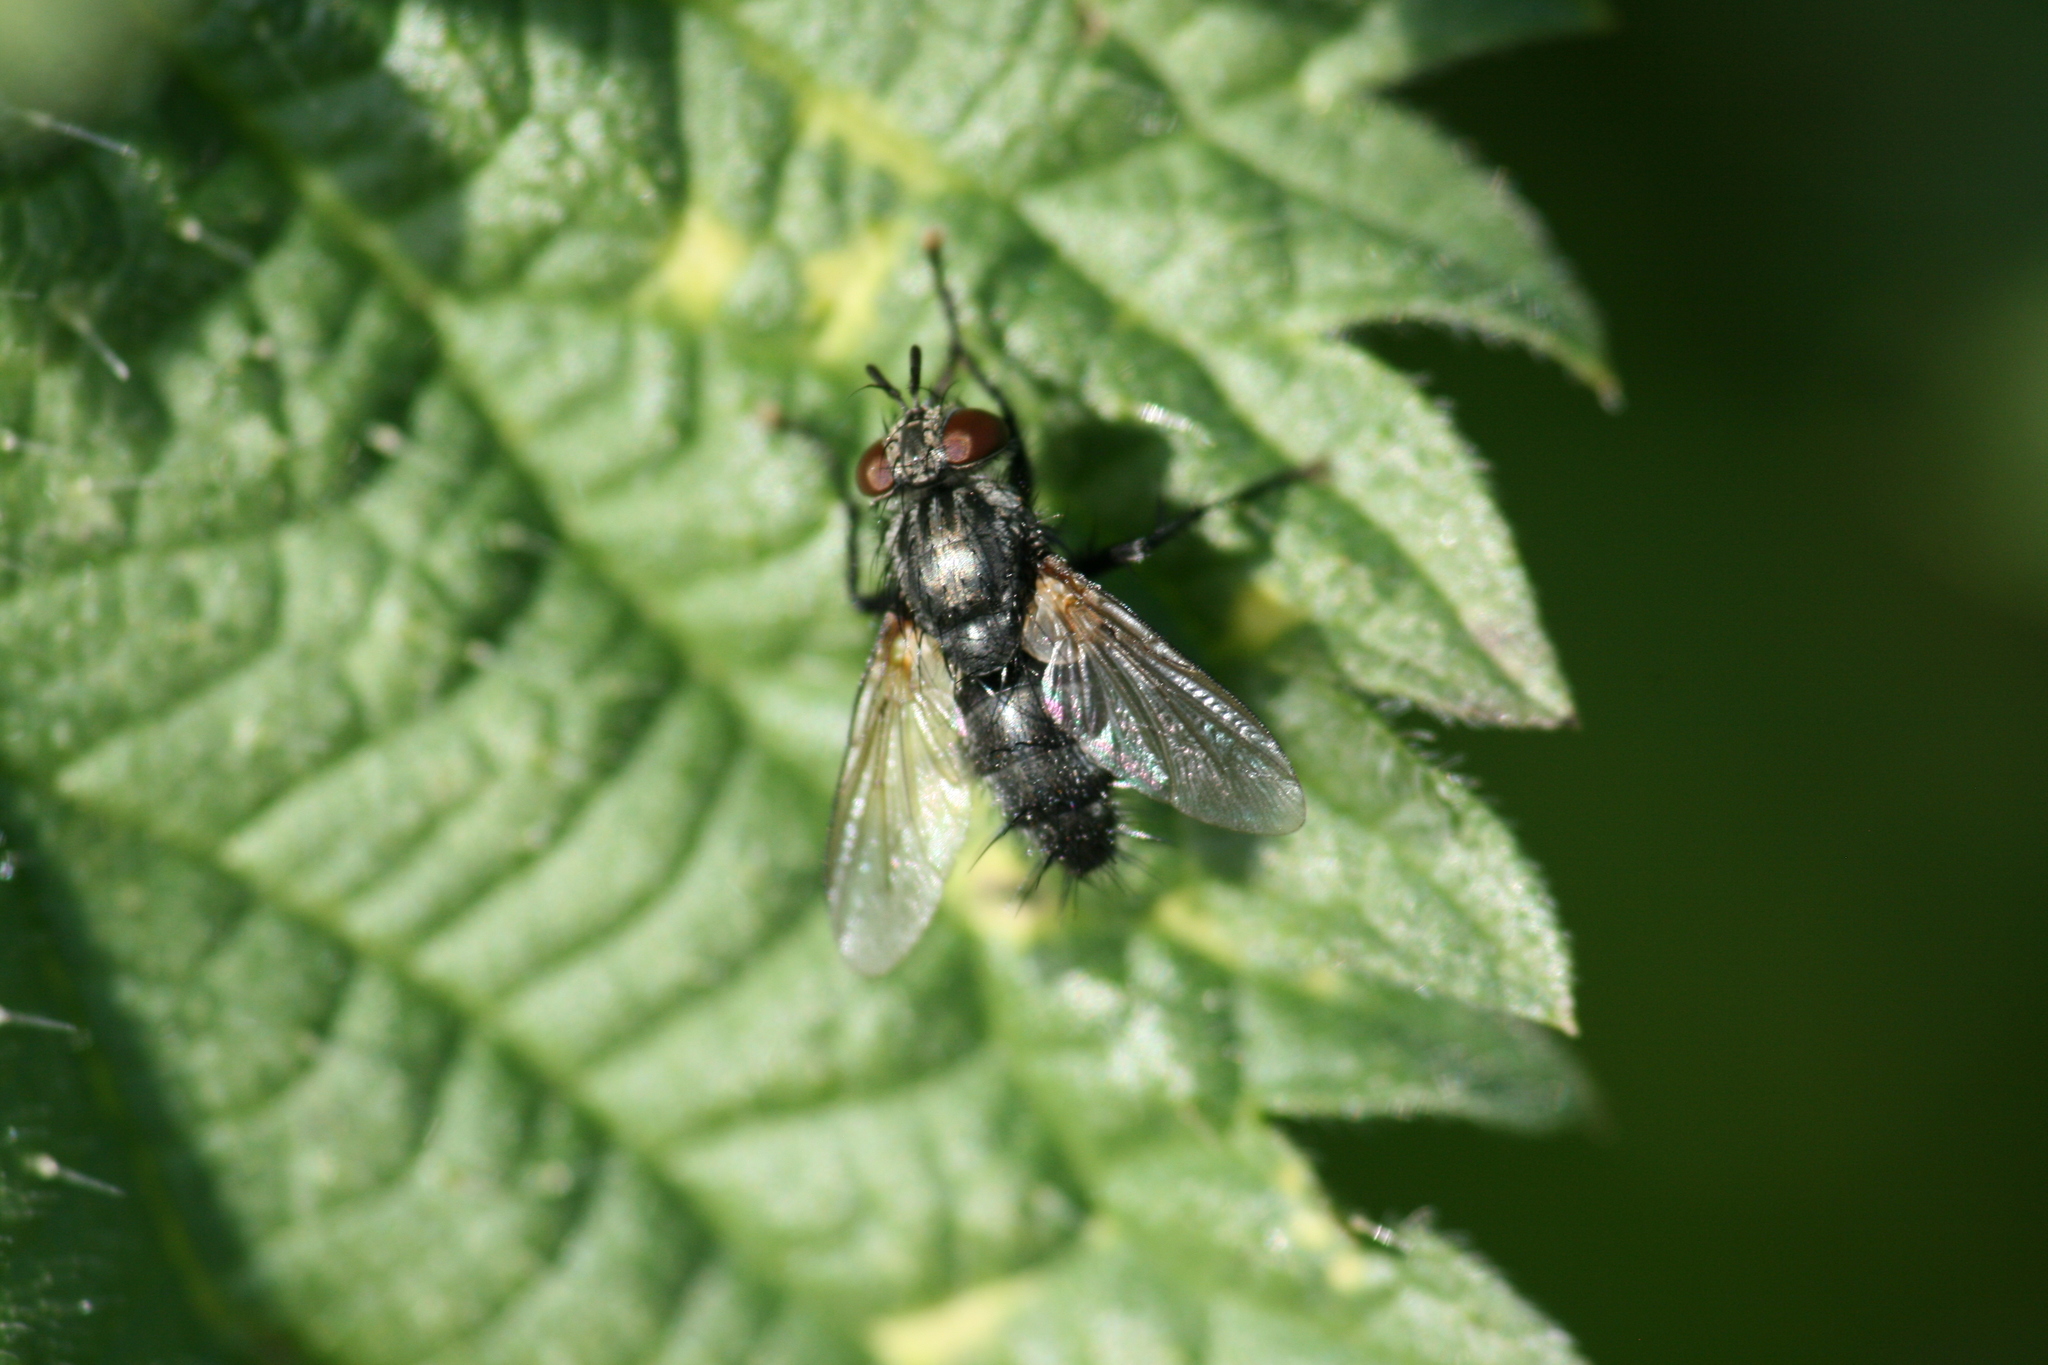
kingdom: Animalia
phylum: Arthropoda
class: Insecta
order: Diptera
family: Tachinidae
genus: Voria
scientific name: Voria ruralis
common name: Parasitic fly
